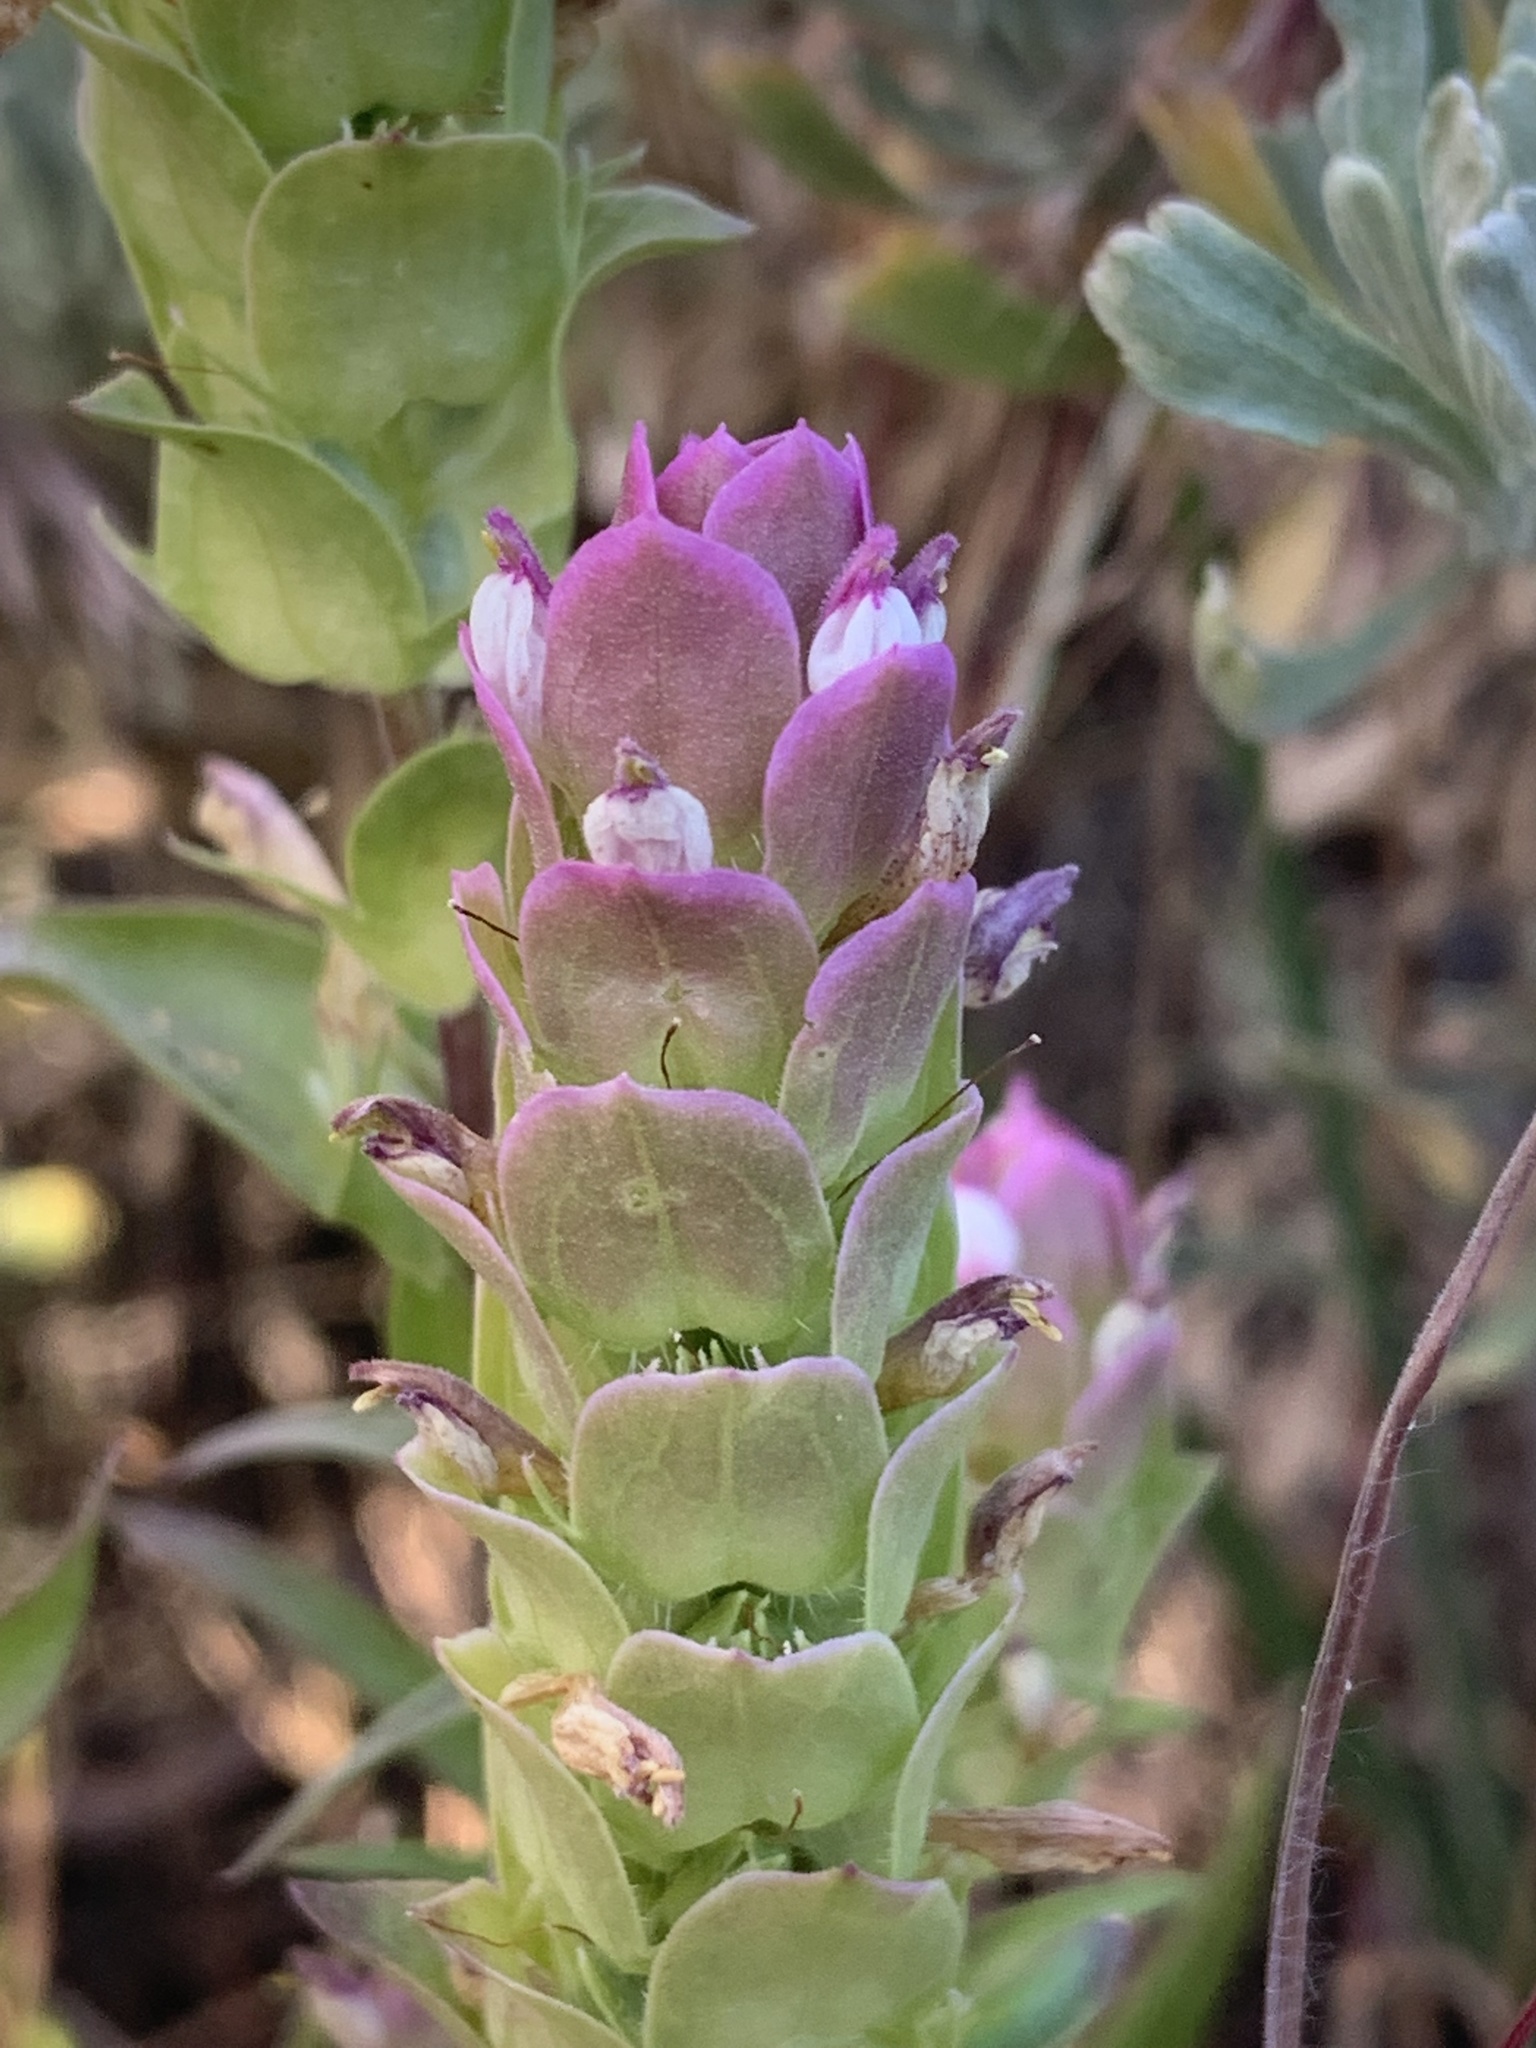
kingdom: Plantae
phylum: Tracheophyta
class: Magnoliopsida
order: Lamiales
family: Orobanchaceae
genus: Orthocarpus
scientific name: Orthocarpus cuspidatus
